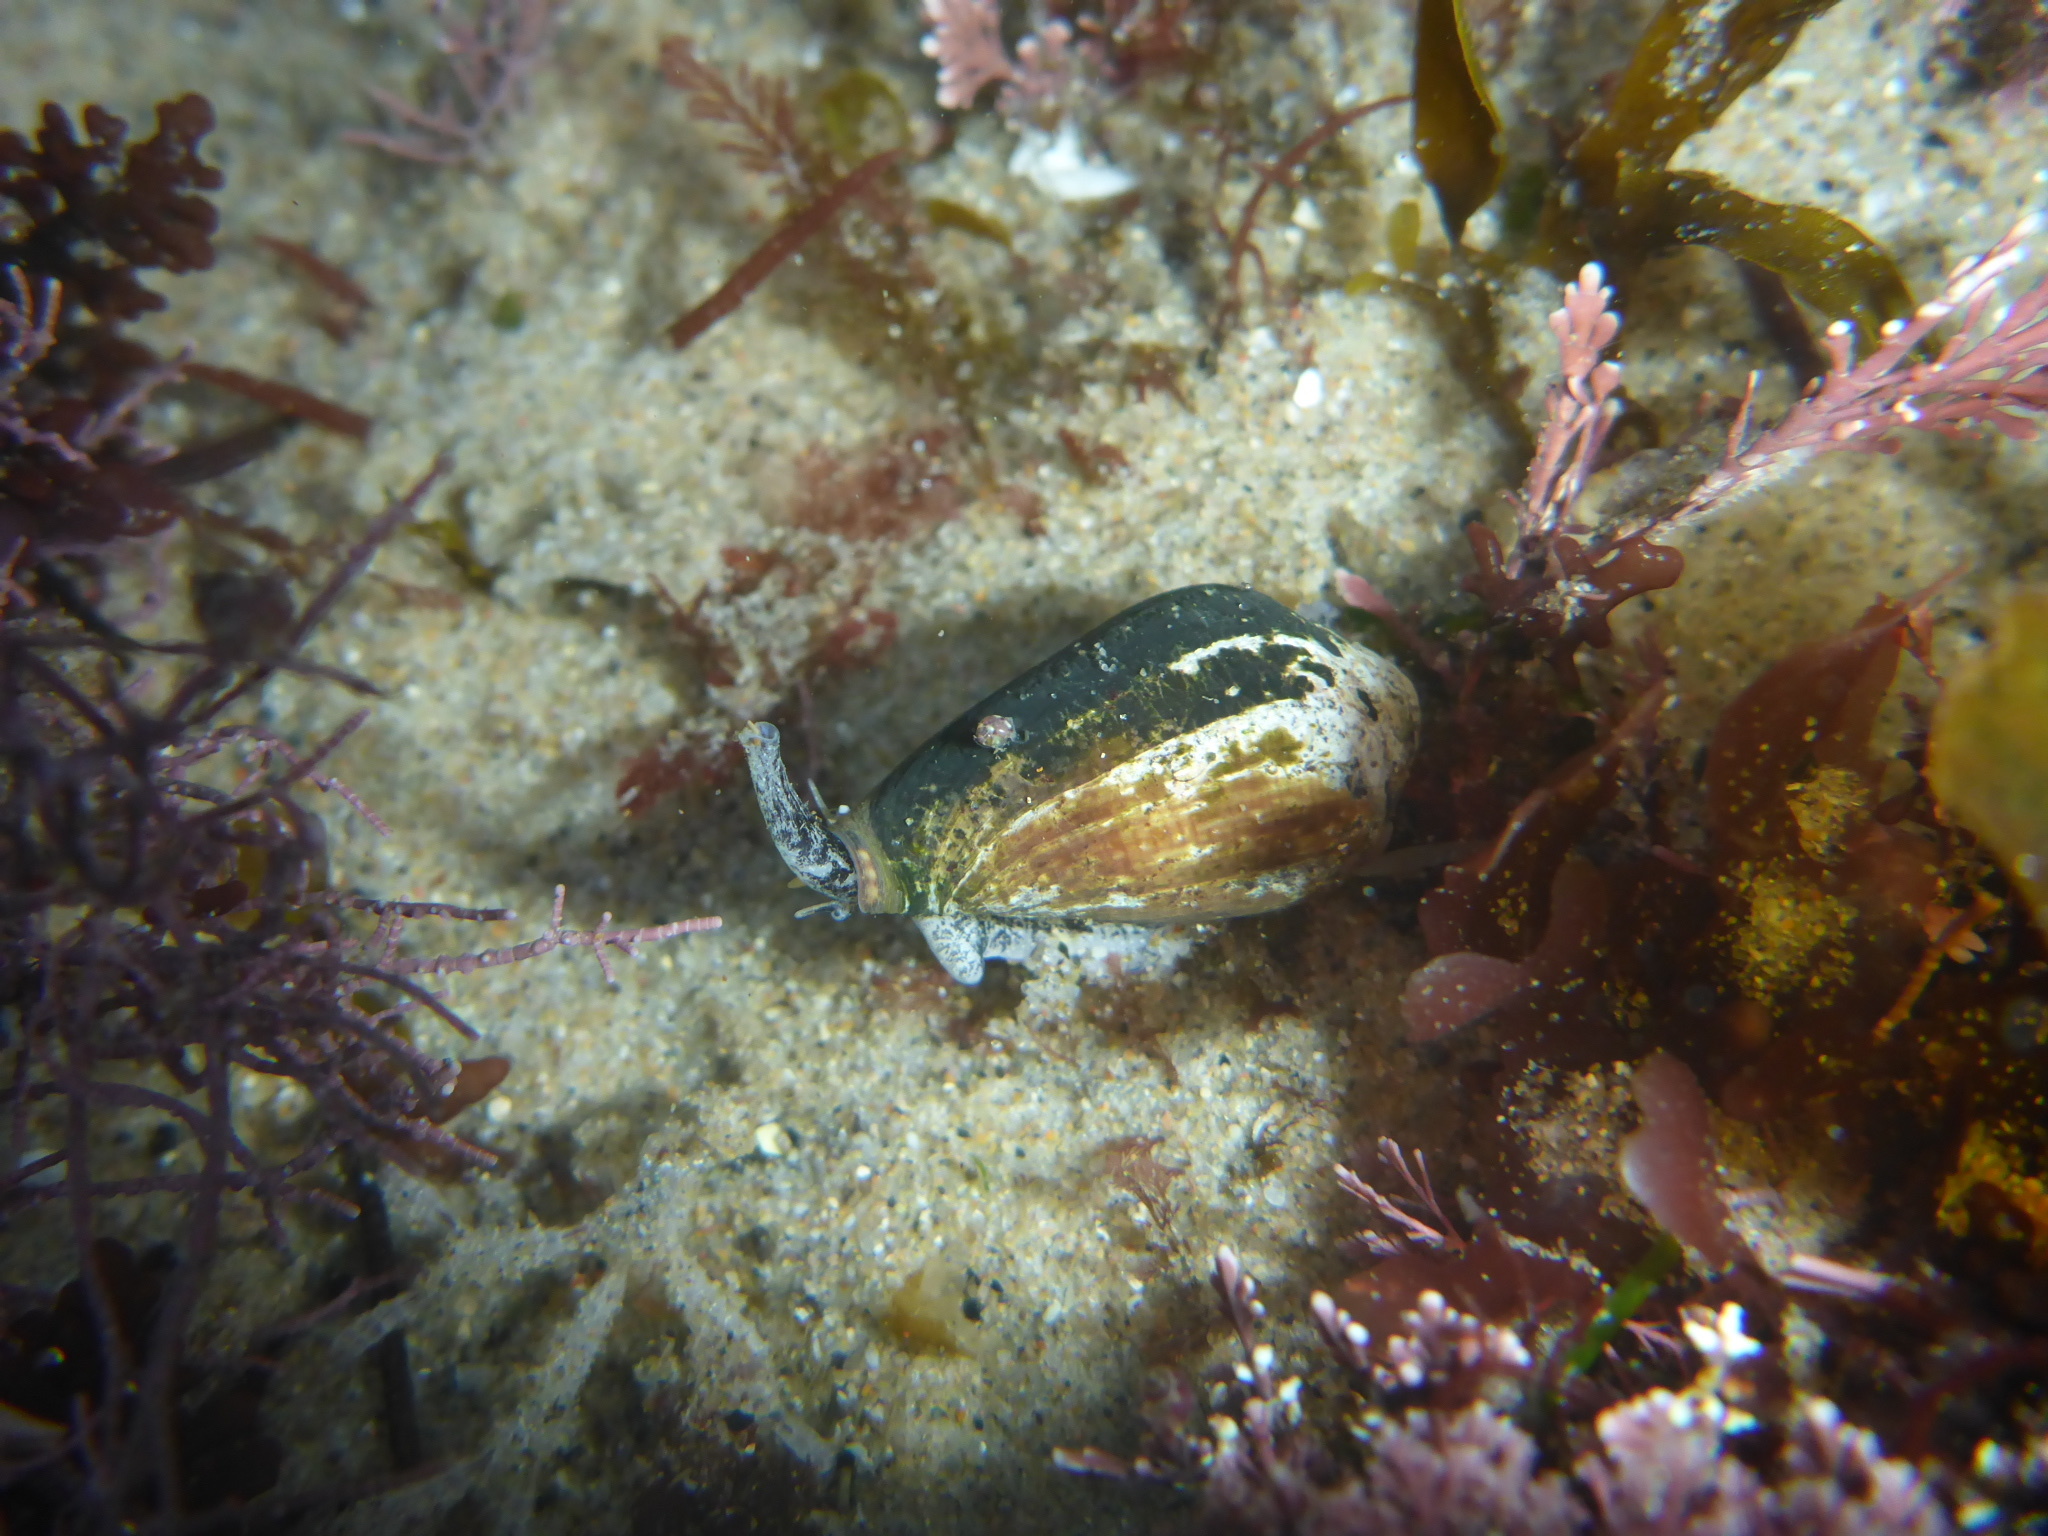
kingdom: Animalia
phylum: Mollusca
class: Gastropoda
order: Neogastropoda
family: Conidae
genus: Californiconus
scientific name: Californiconus californicus
